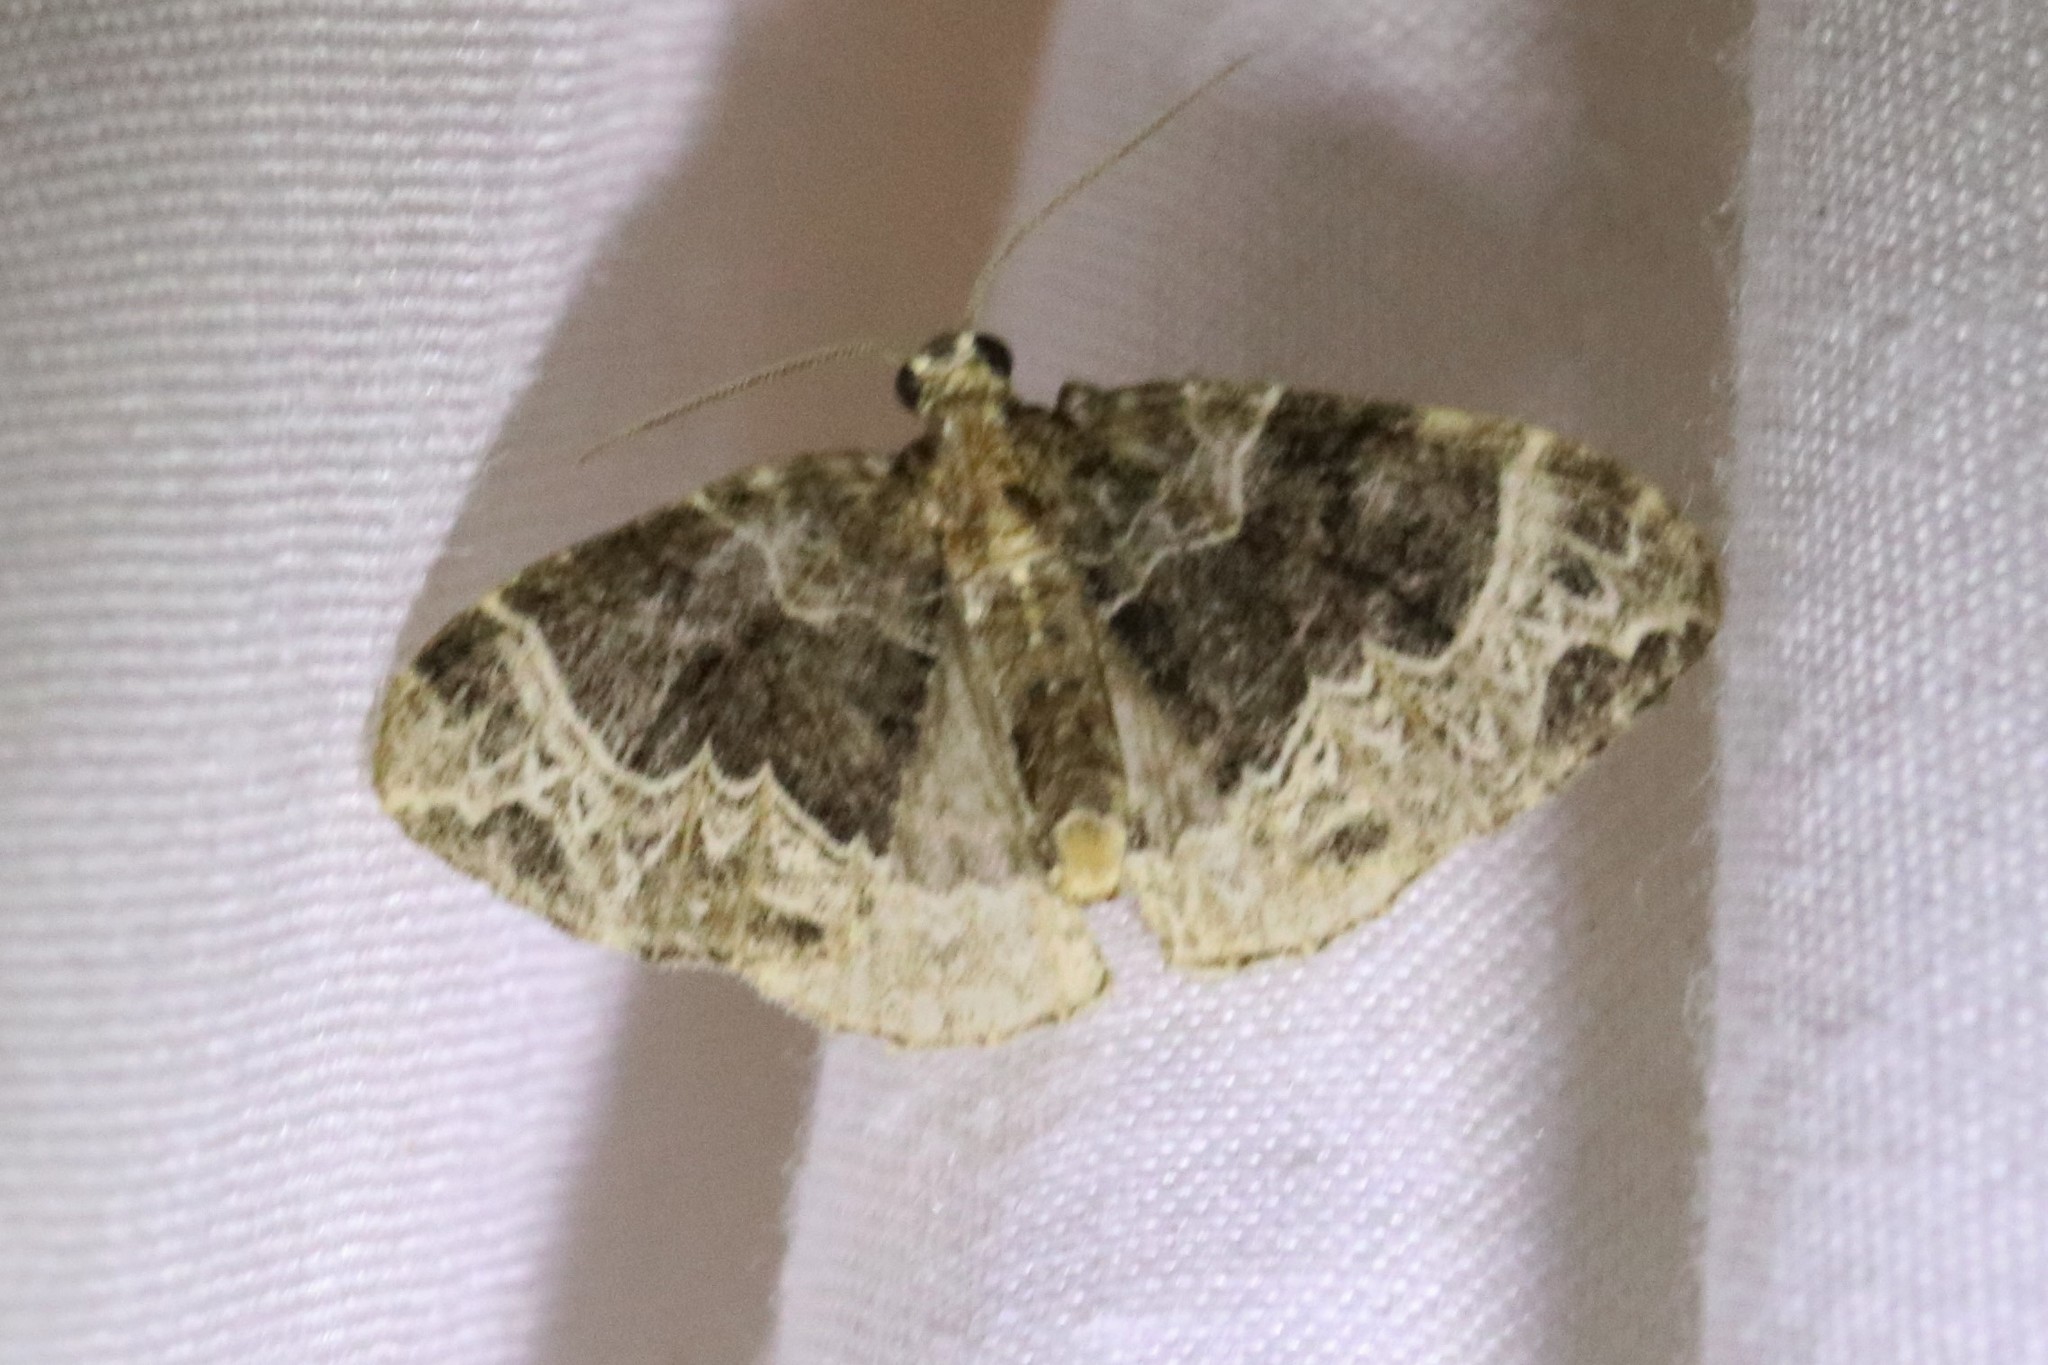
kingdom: Animalia
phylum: Arthropoda
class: Insecta
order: Lepidoptera
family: Geometridae
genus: Ecliptopera
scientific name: Ecliptopera silaceata
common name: Small phoenix
